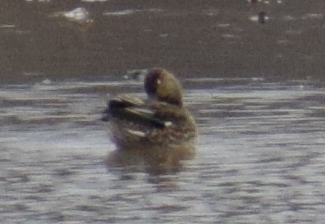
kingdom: Animalia
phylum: Chordata
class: Aves
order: Anseriformes
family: Anatidae
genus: Anas
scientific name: Anas crecca
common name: Eurasian teal
